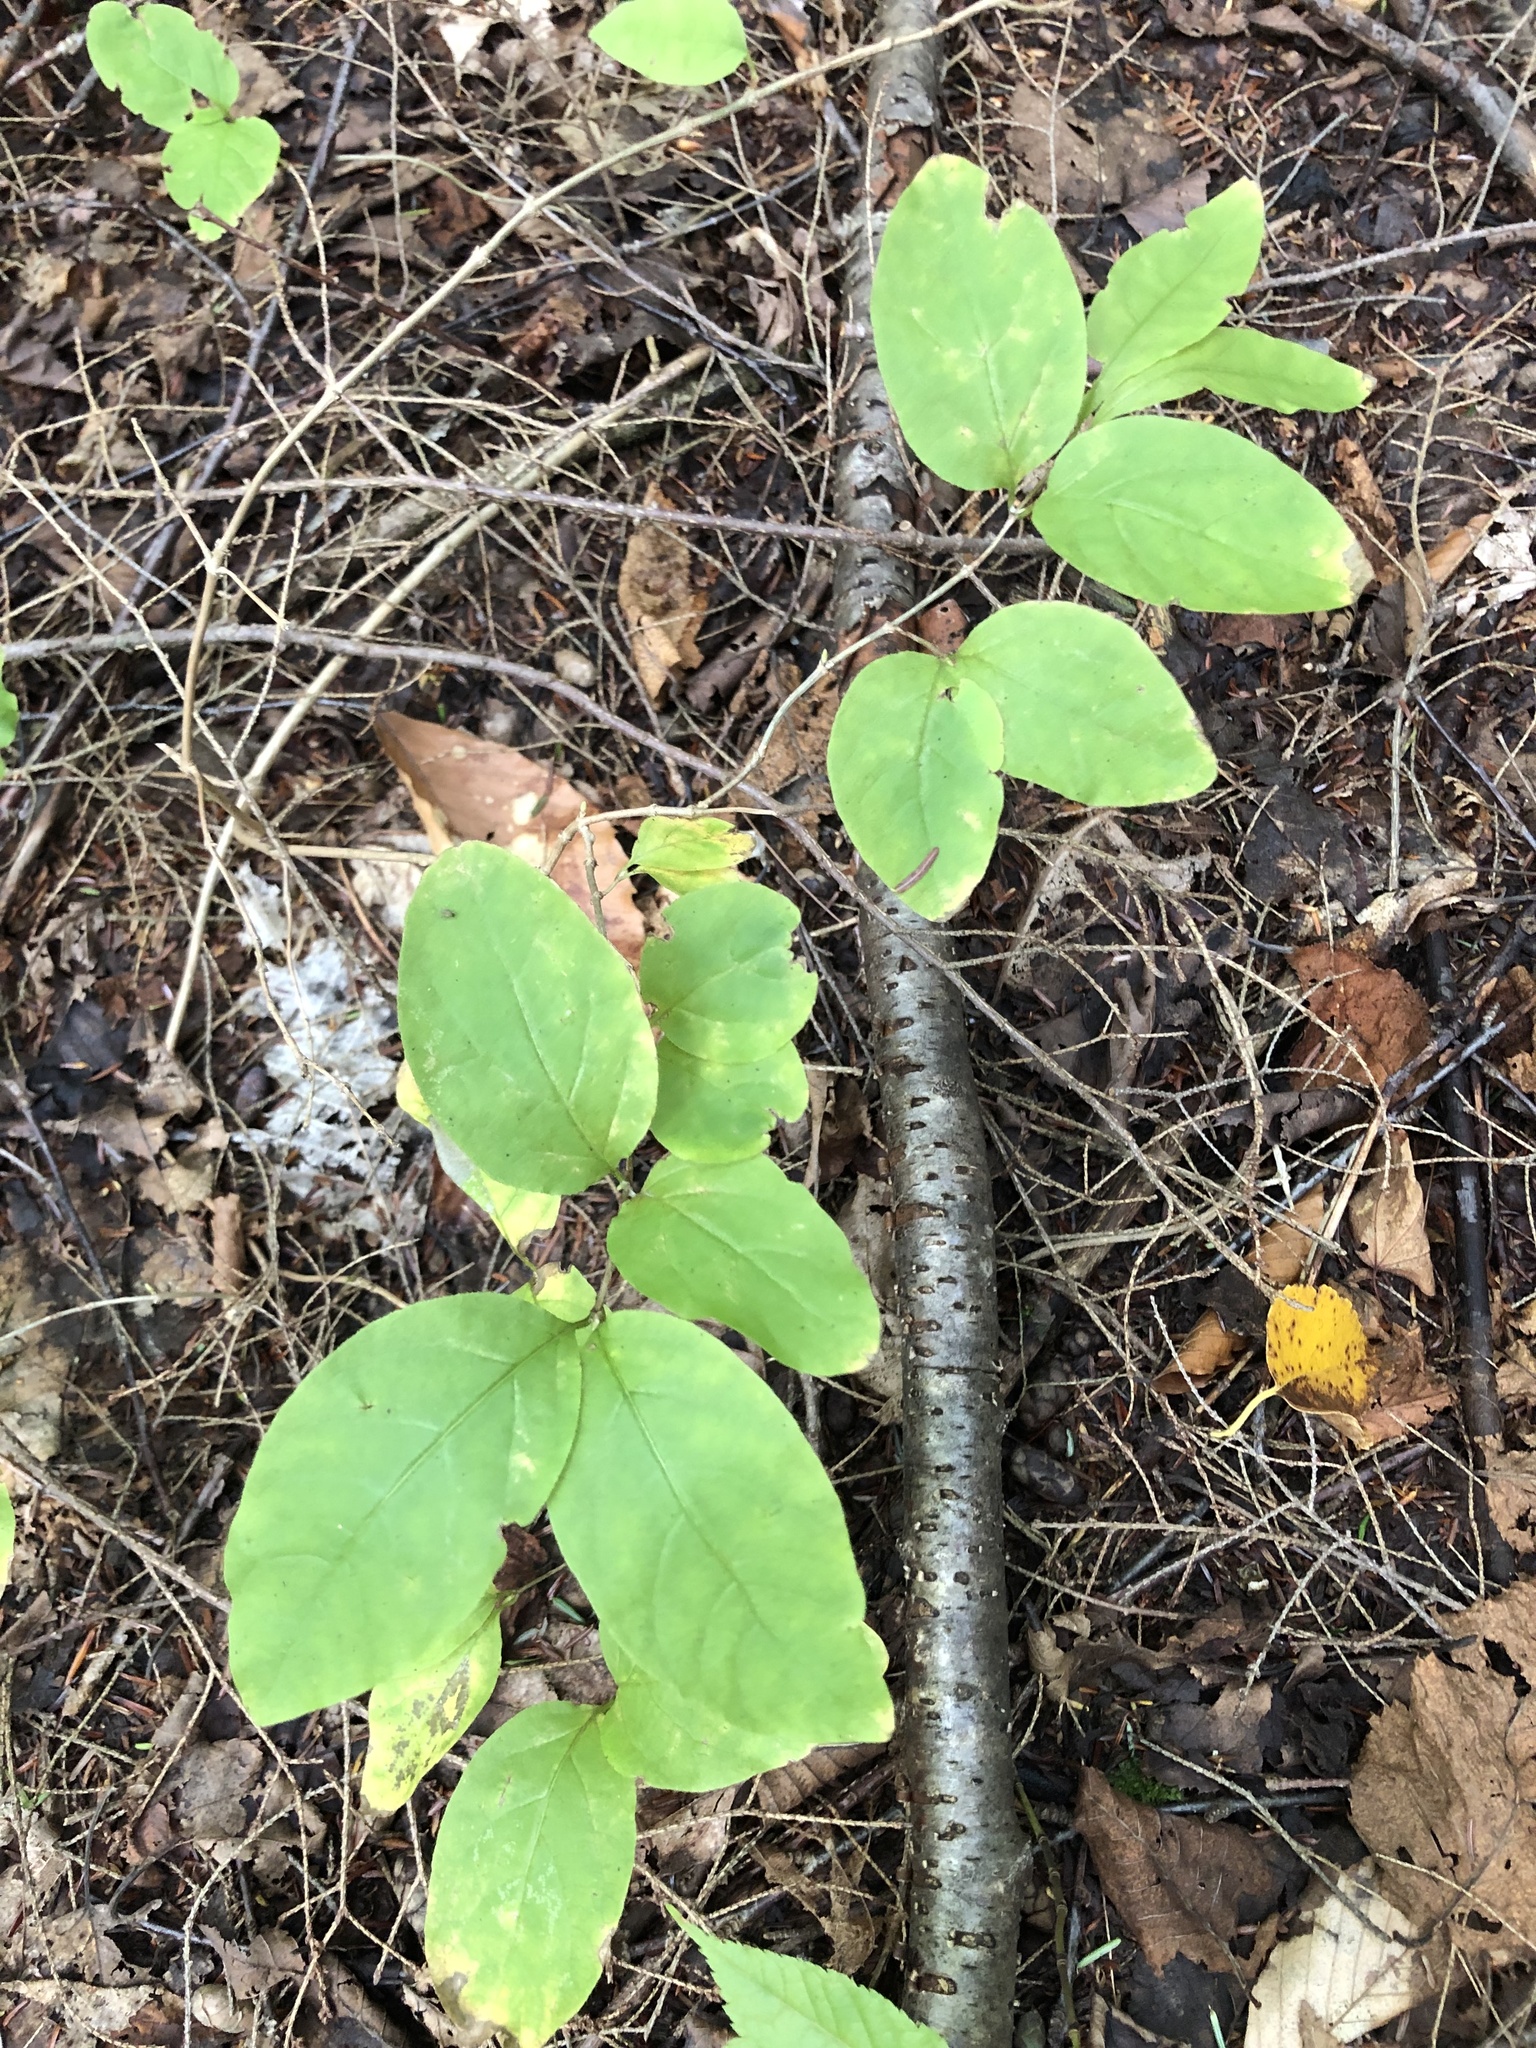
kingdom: Plantae
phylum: Tracheophyta
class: Magnoliopsida
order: Dipsacales
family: Caprifoliaceae
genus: Lonicera
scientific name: Lonicera canadensis
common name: American fly-honeysuckle
